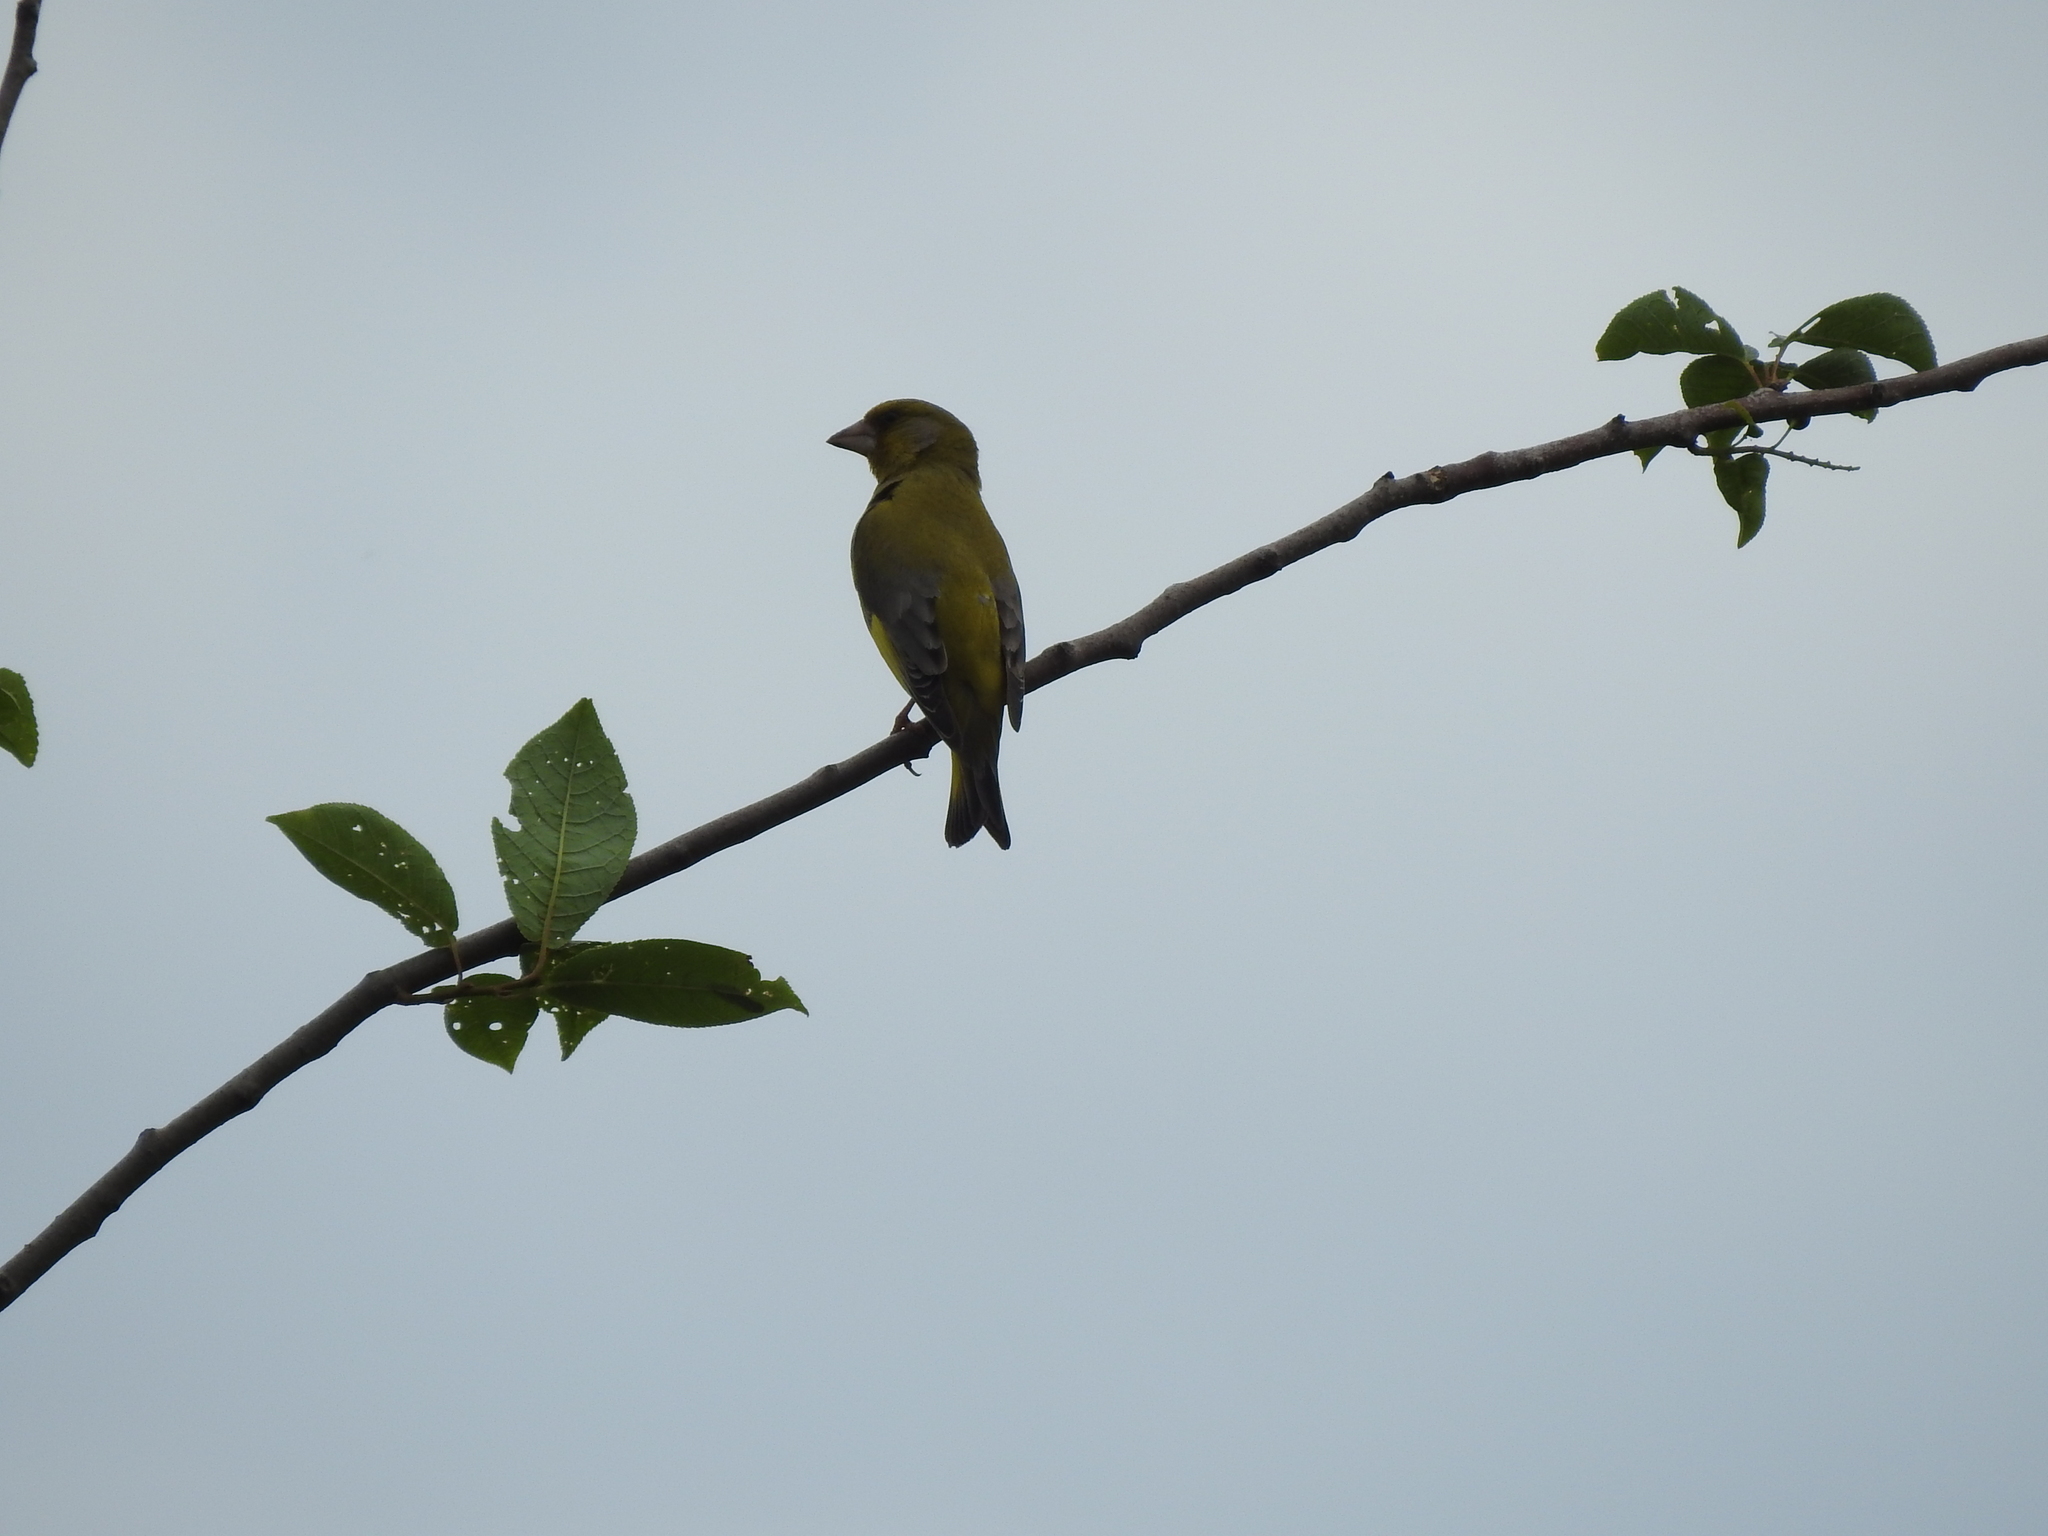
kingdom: Plantae
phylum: Tracheophyta
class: Liliopsida
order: Poales
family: Poaceae
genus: Chloris
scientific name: Chloris chloris
